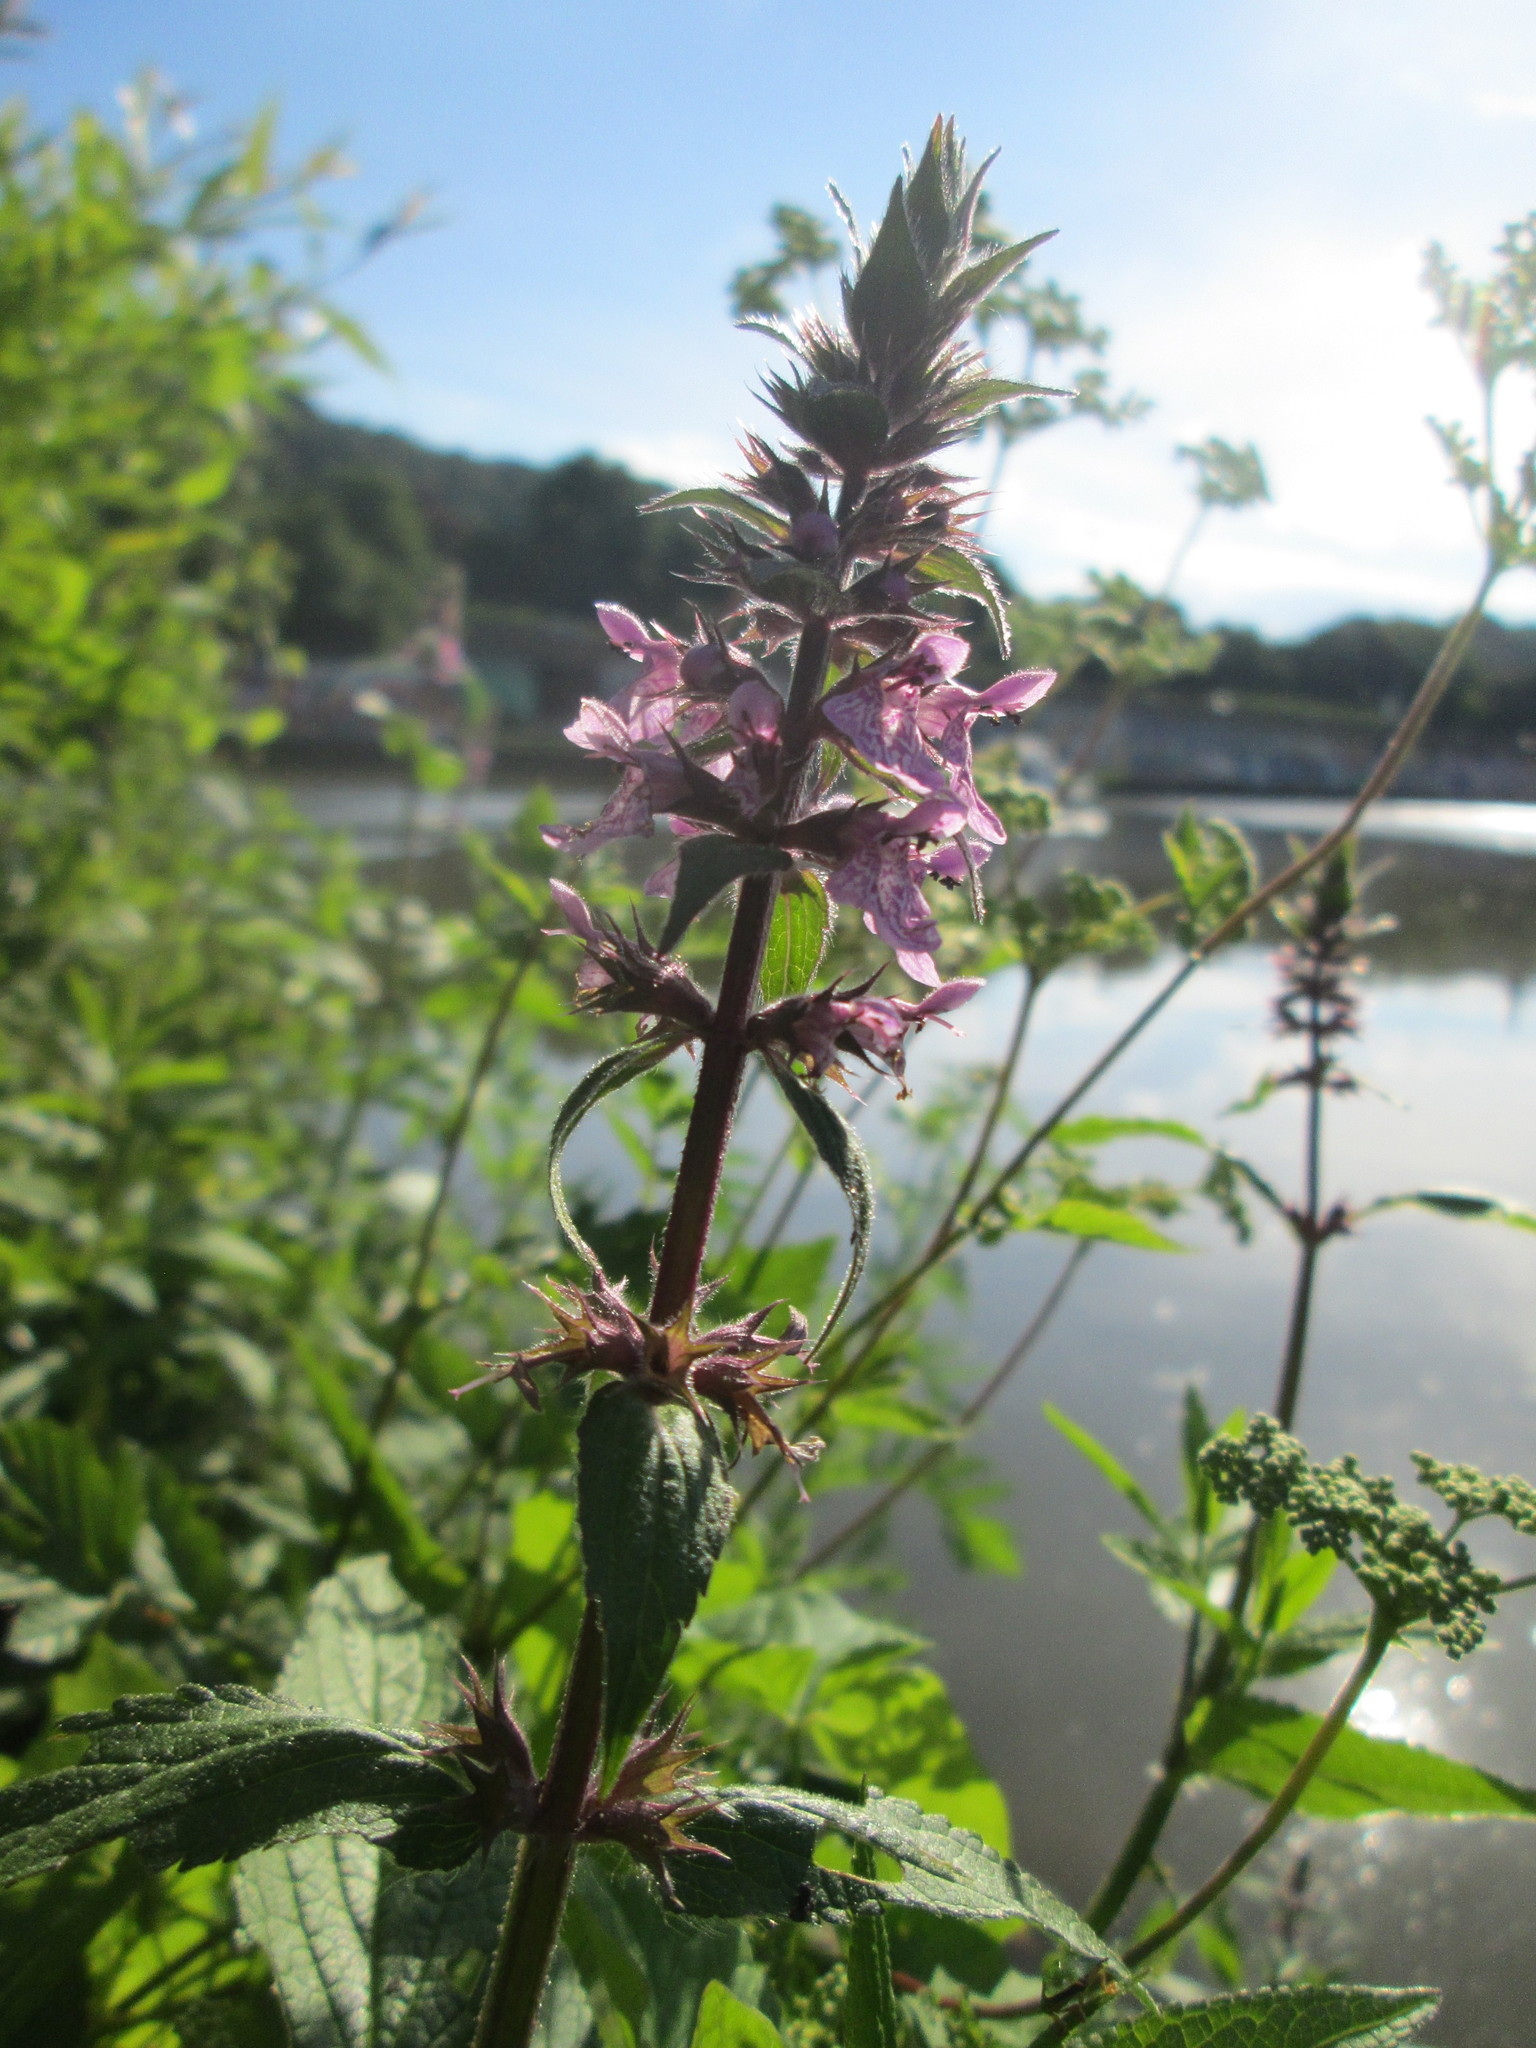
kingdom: Plantae
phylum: Tracheophyta
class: Magnoliopsida
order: Lamiales
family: Lamiaceae
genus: Stachys
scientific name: Stachys palustris
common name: Marsh woundwort
